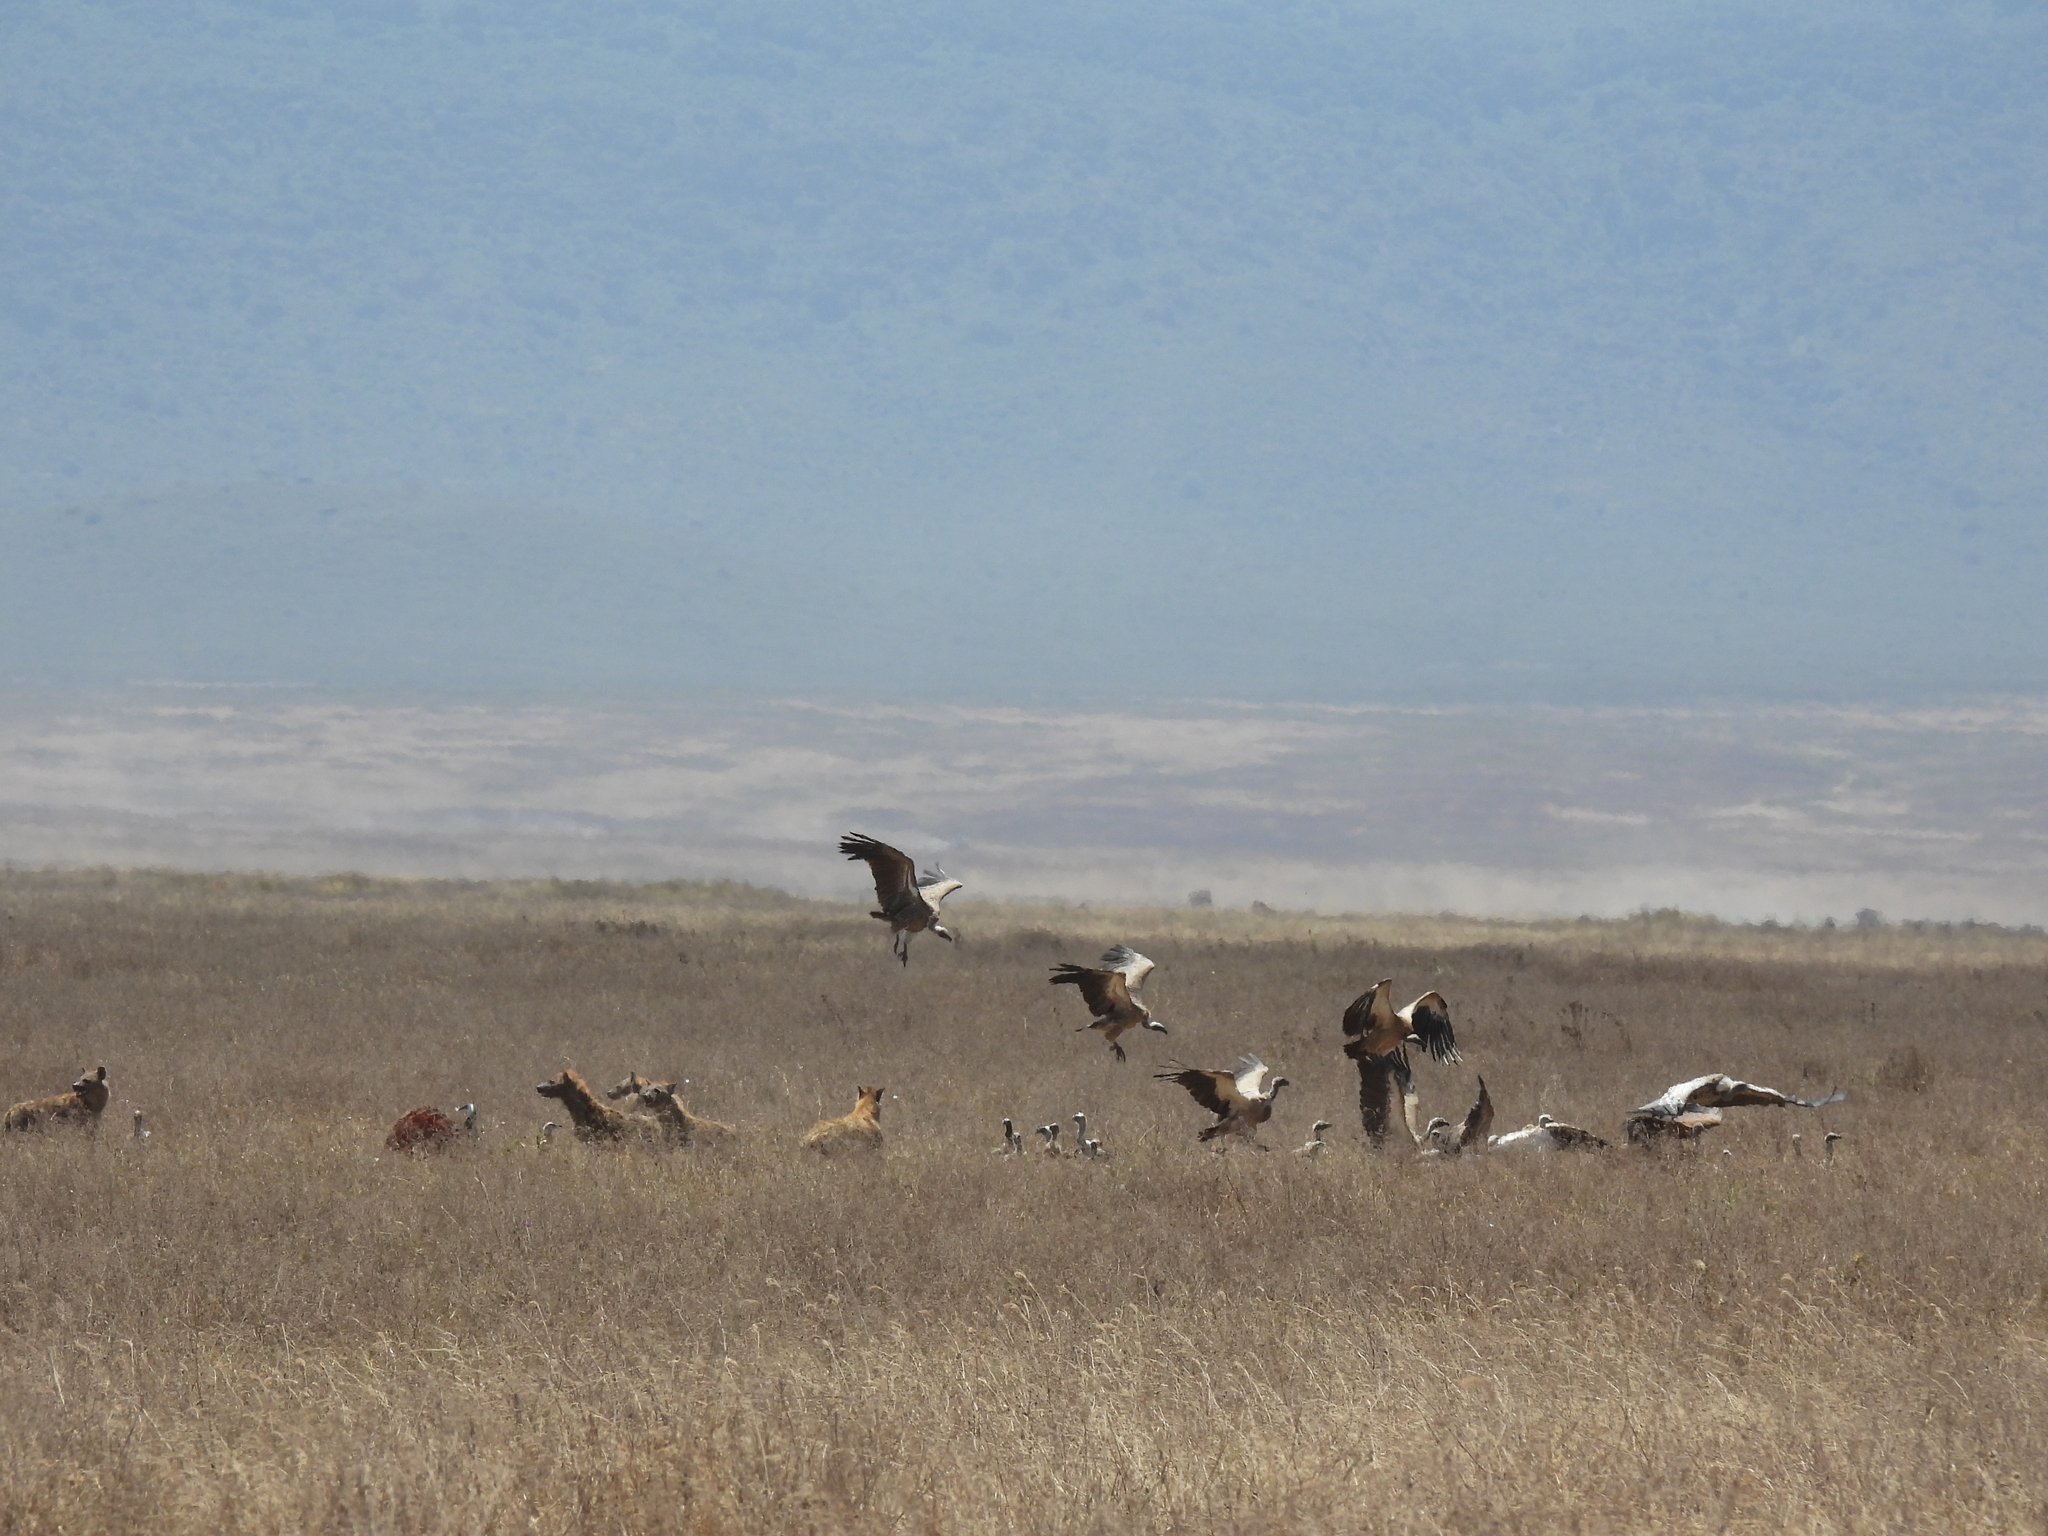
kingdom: Animalia
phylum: Chordata
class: Aves
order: Accipitriformes
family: Accipitridae
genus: Gyps
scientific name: Gyps africanus
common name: White-backed vulture
